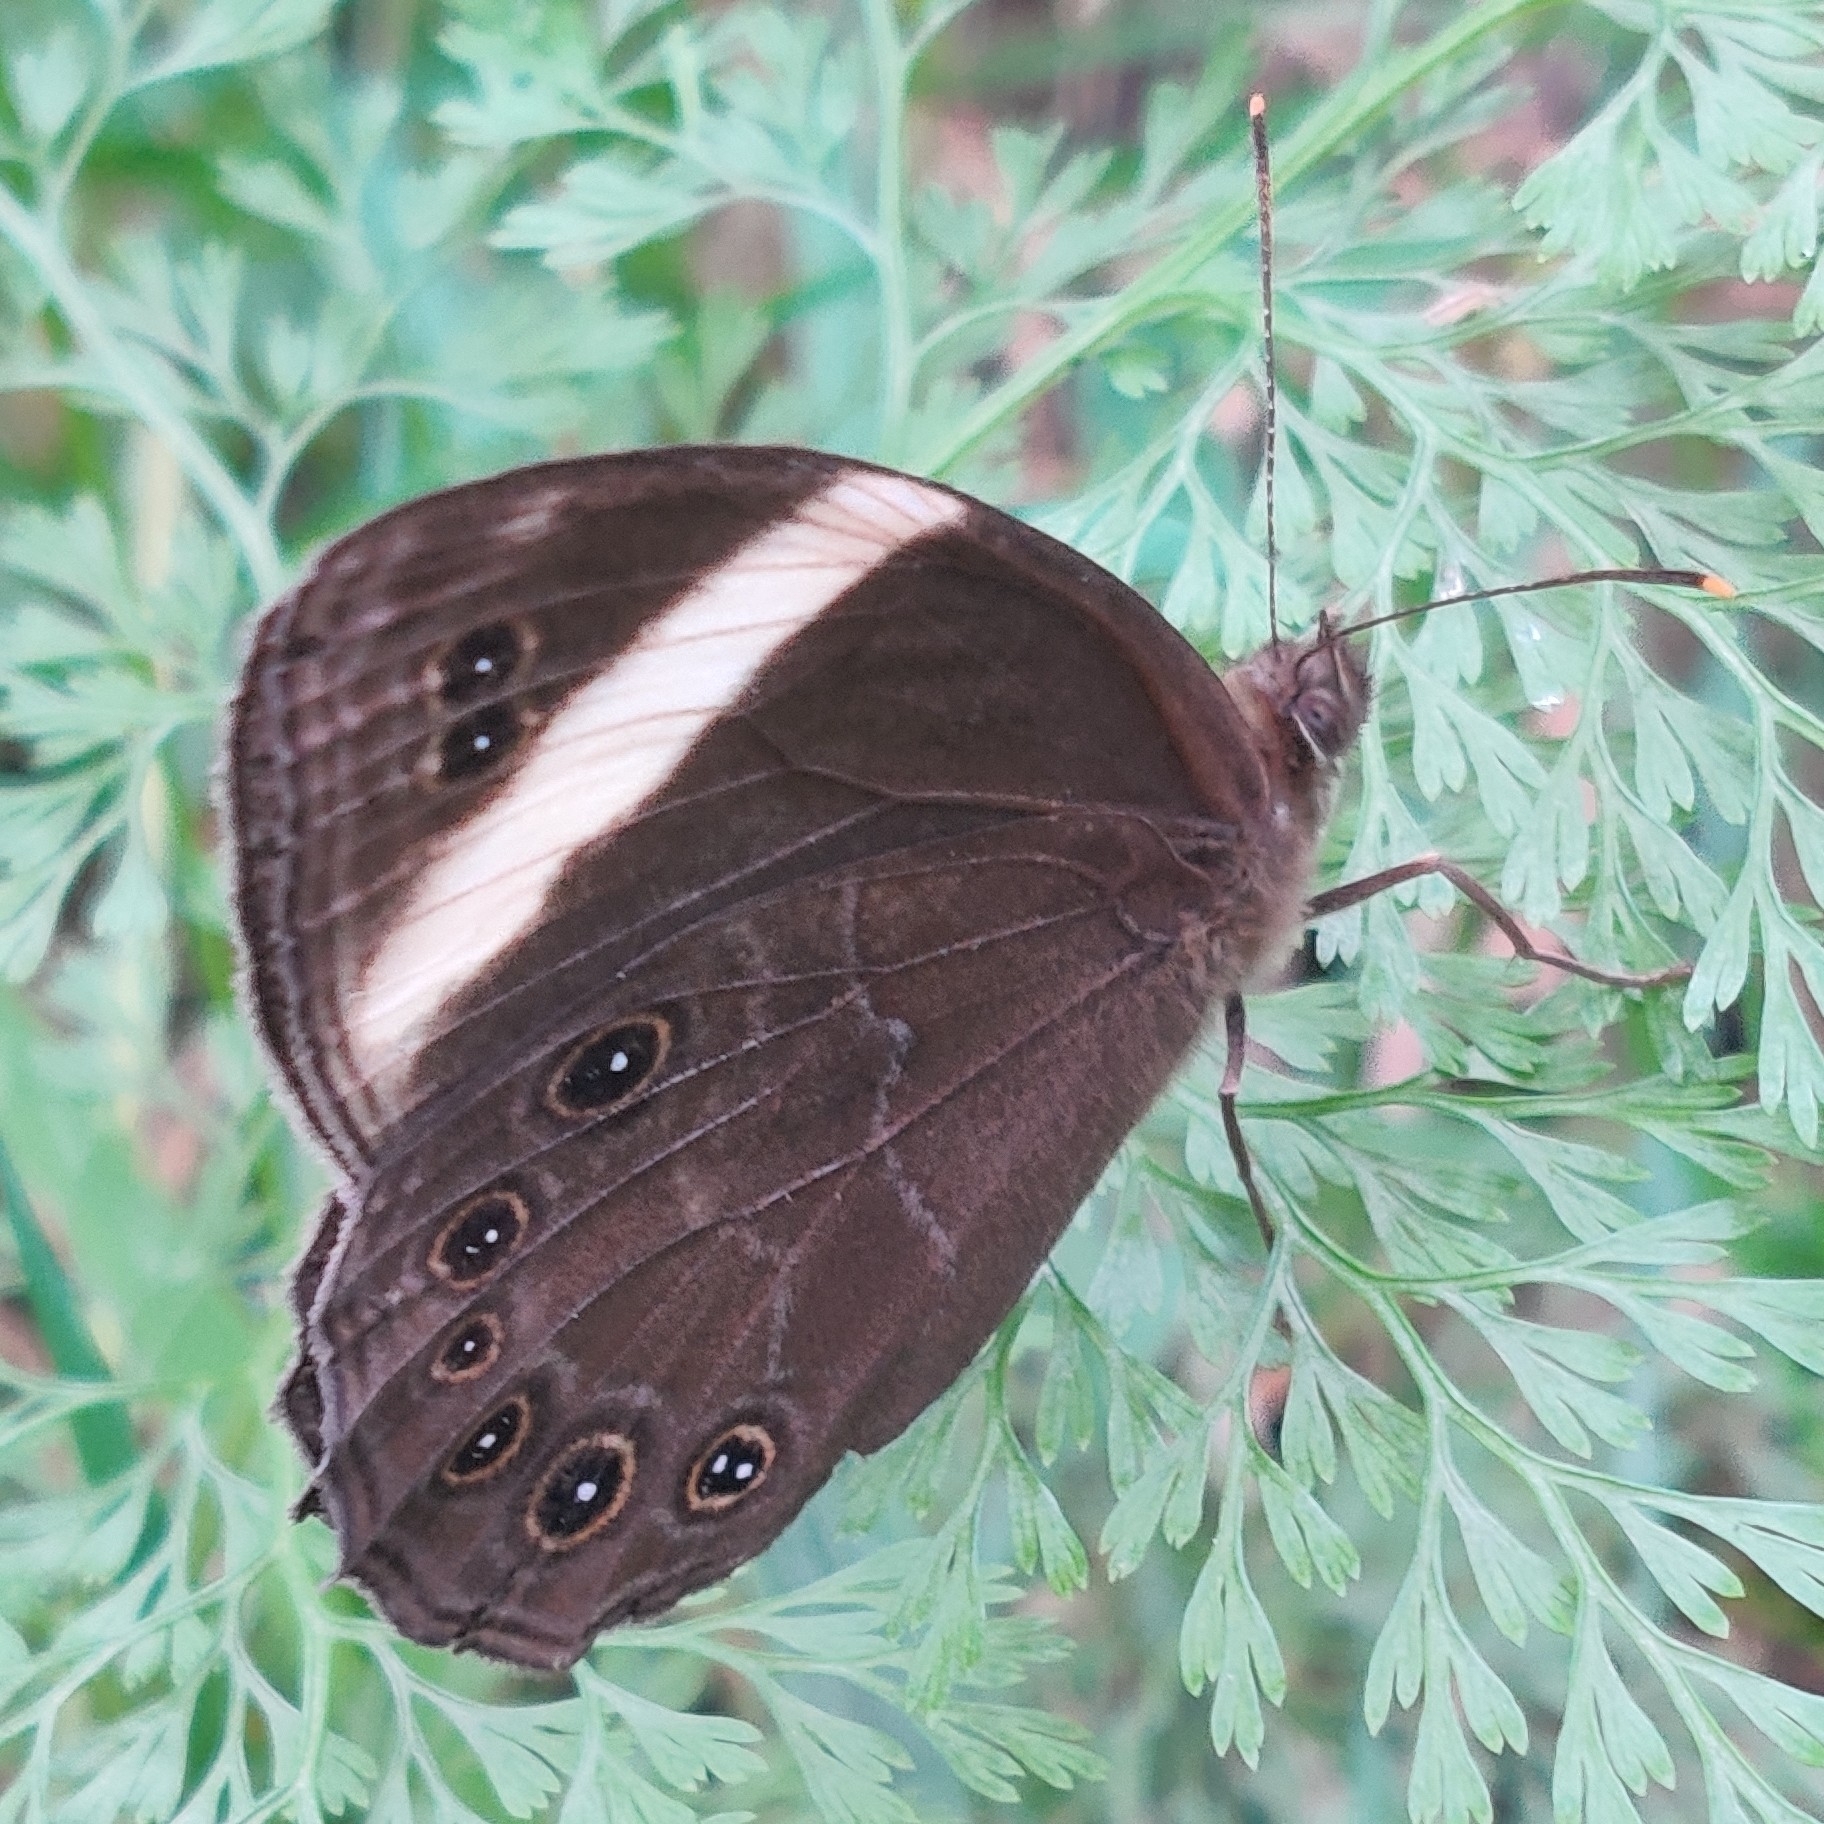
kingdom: Animalia
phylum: Arthropoda
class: Insecta
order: Lepidoptera
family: Nymphalidae
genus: Lethe
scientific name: Lethe verma
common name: Straight-banded treebrown
